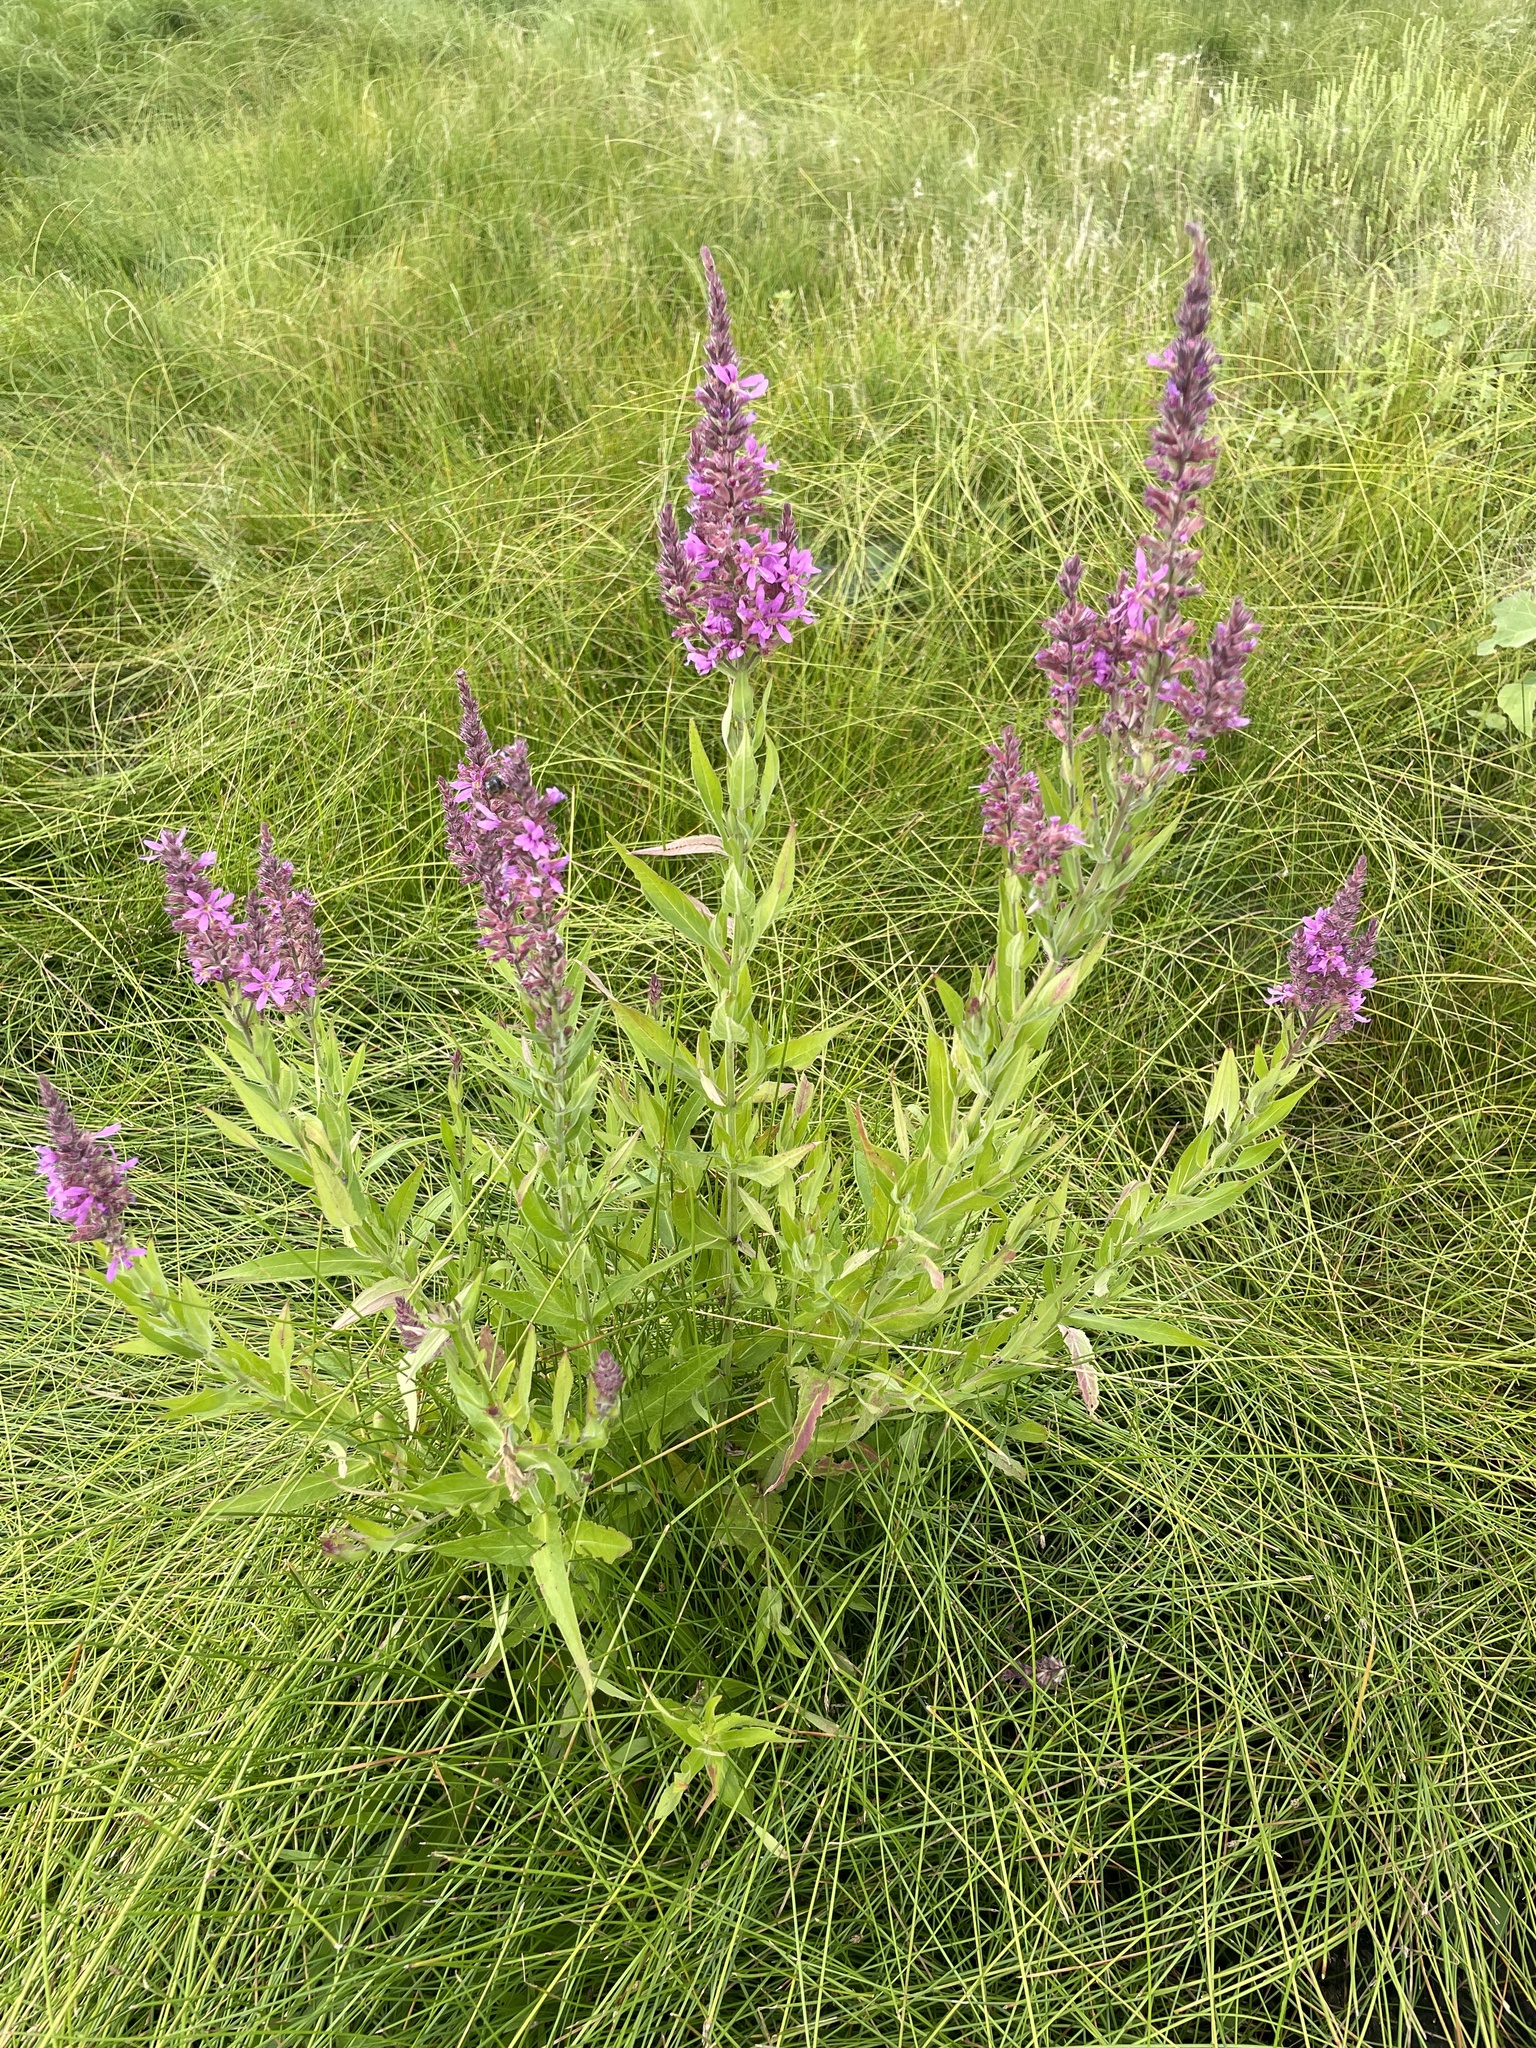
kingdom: Plantae
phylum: Tracheophyta
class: Magnoliopsida
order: Myrtales
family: Lythraceae
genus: Lythrum
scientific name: Lythrum salicaria
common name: Purple loosestrife
